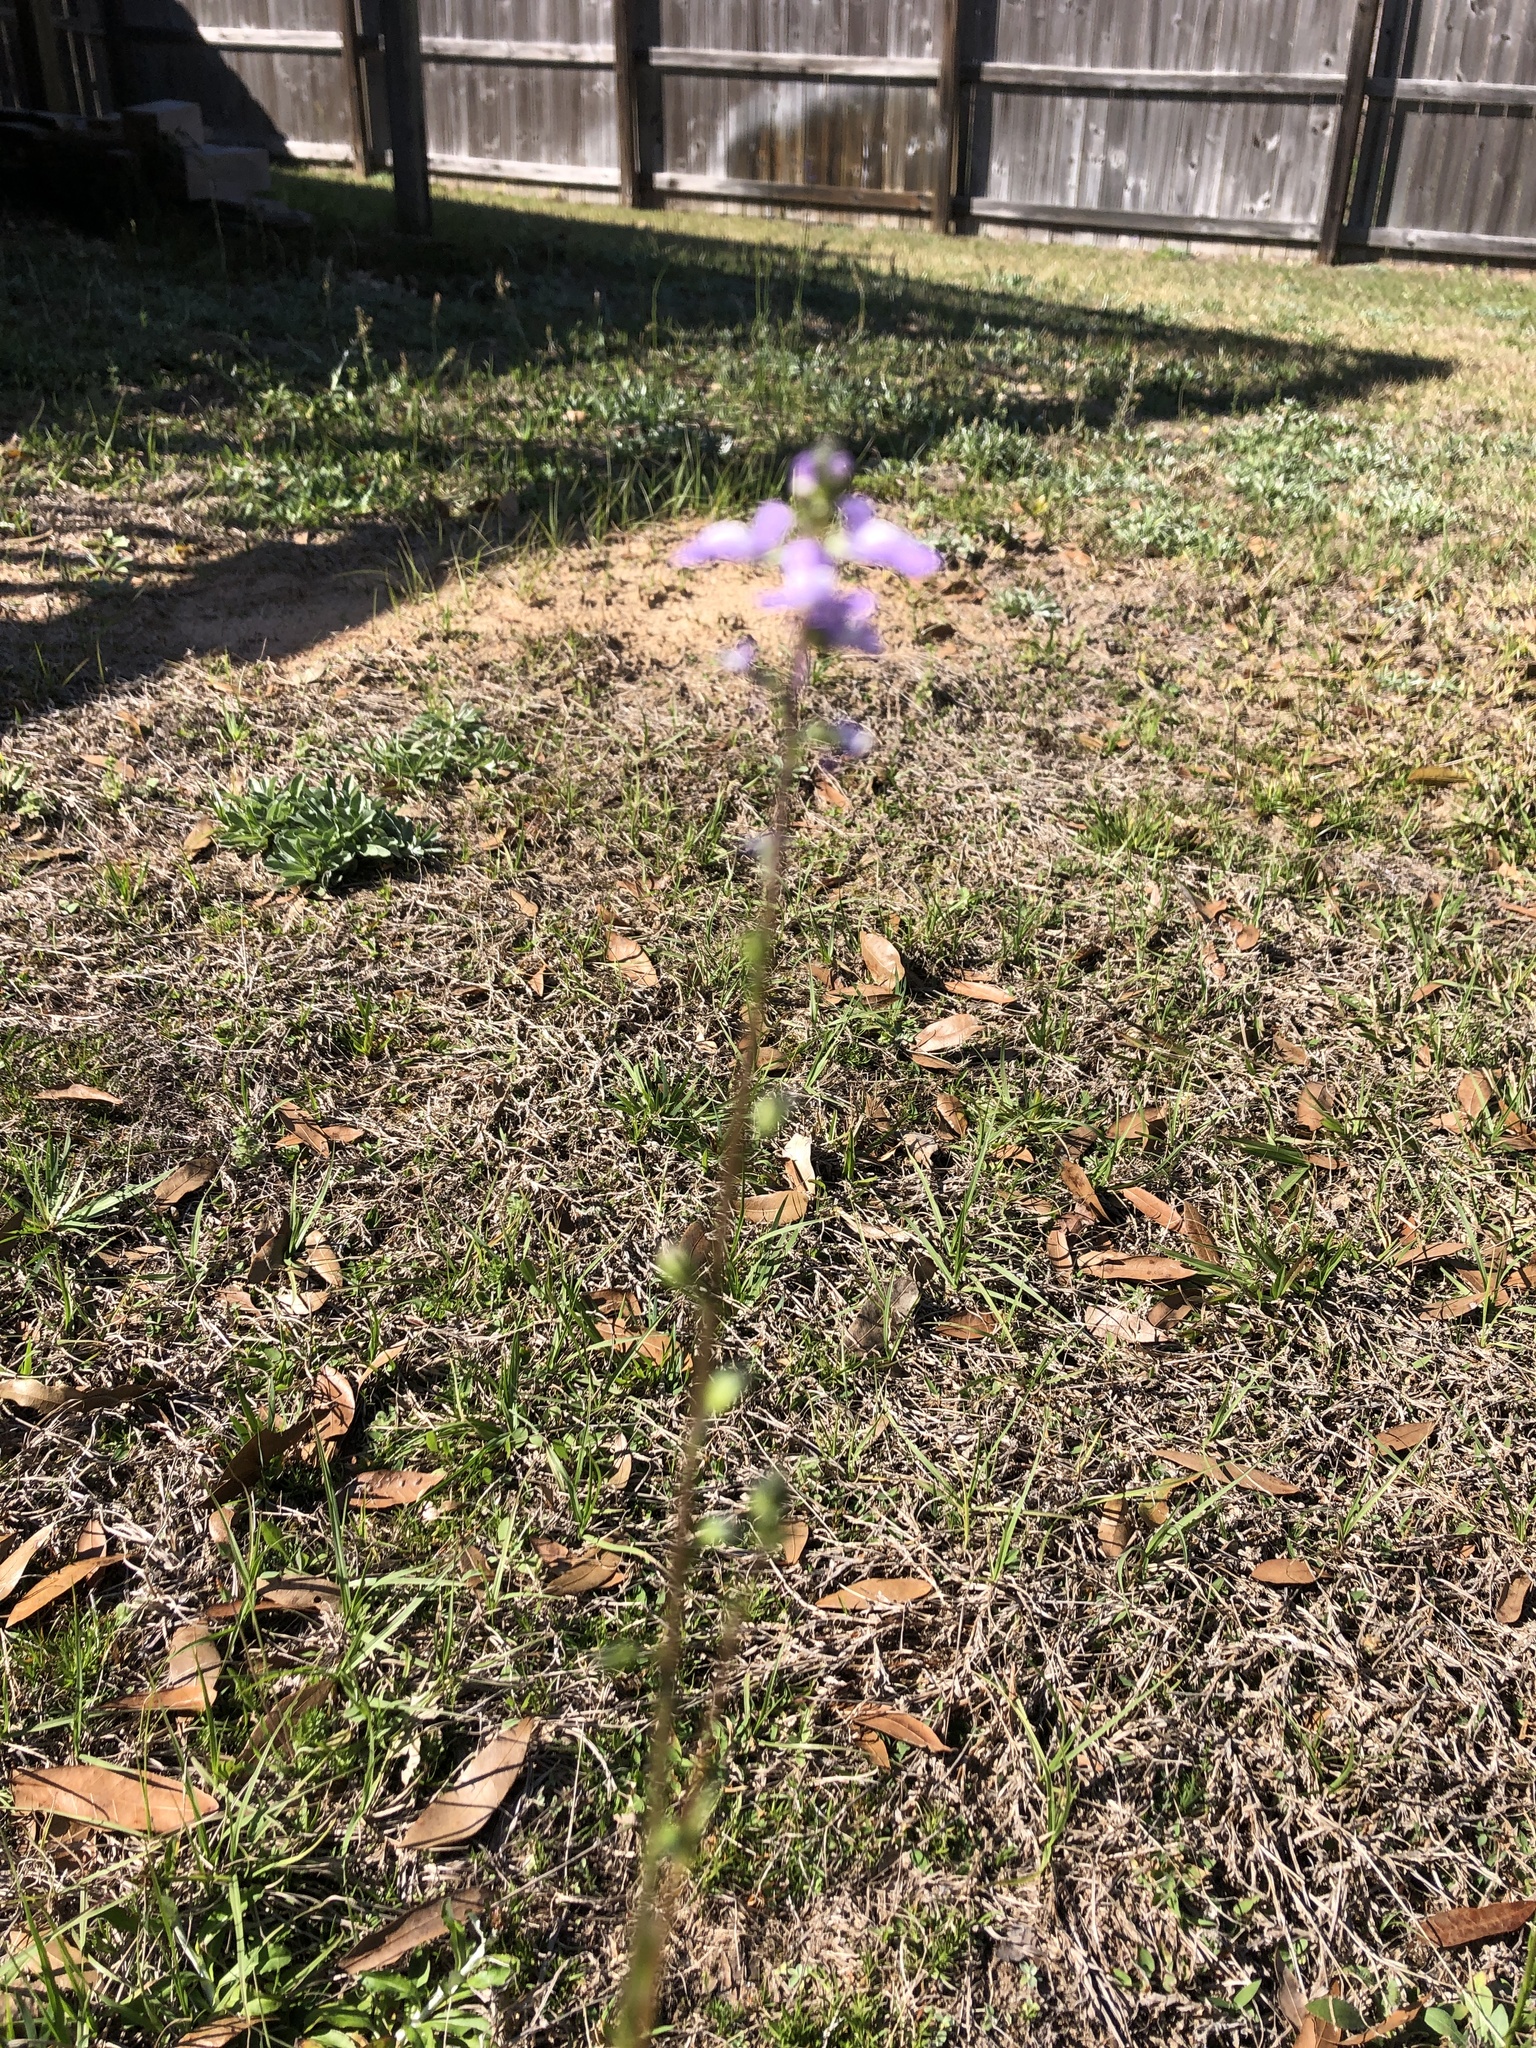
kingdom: Plantae
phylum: Tracheophyta
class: Magnoliopsida
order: Lamiales
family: Plantaginaceae
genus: Nuttallanthus
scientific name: Nuttallanthus canadensis
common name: Blue toadflax
